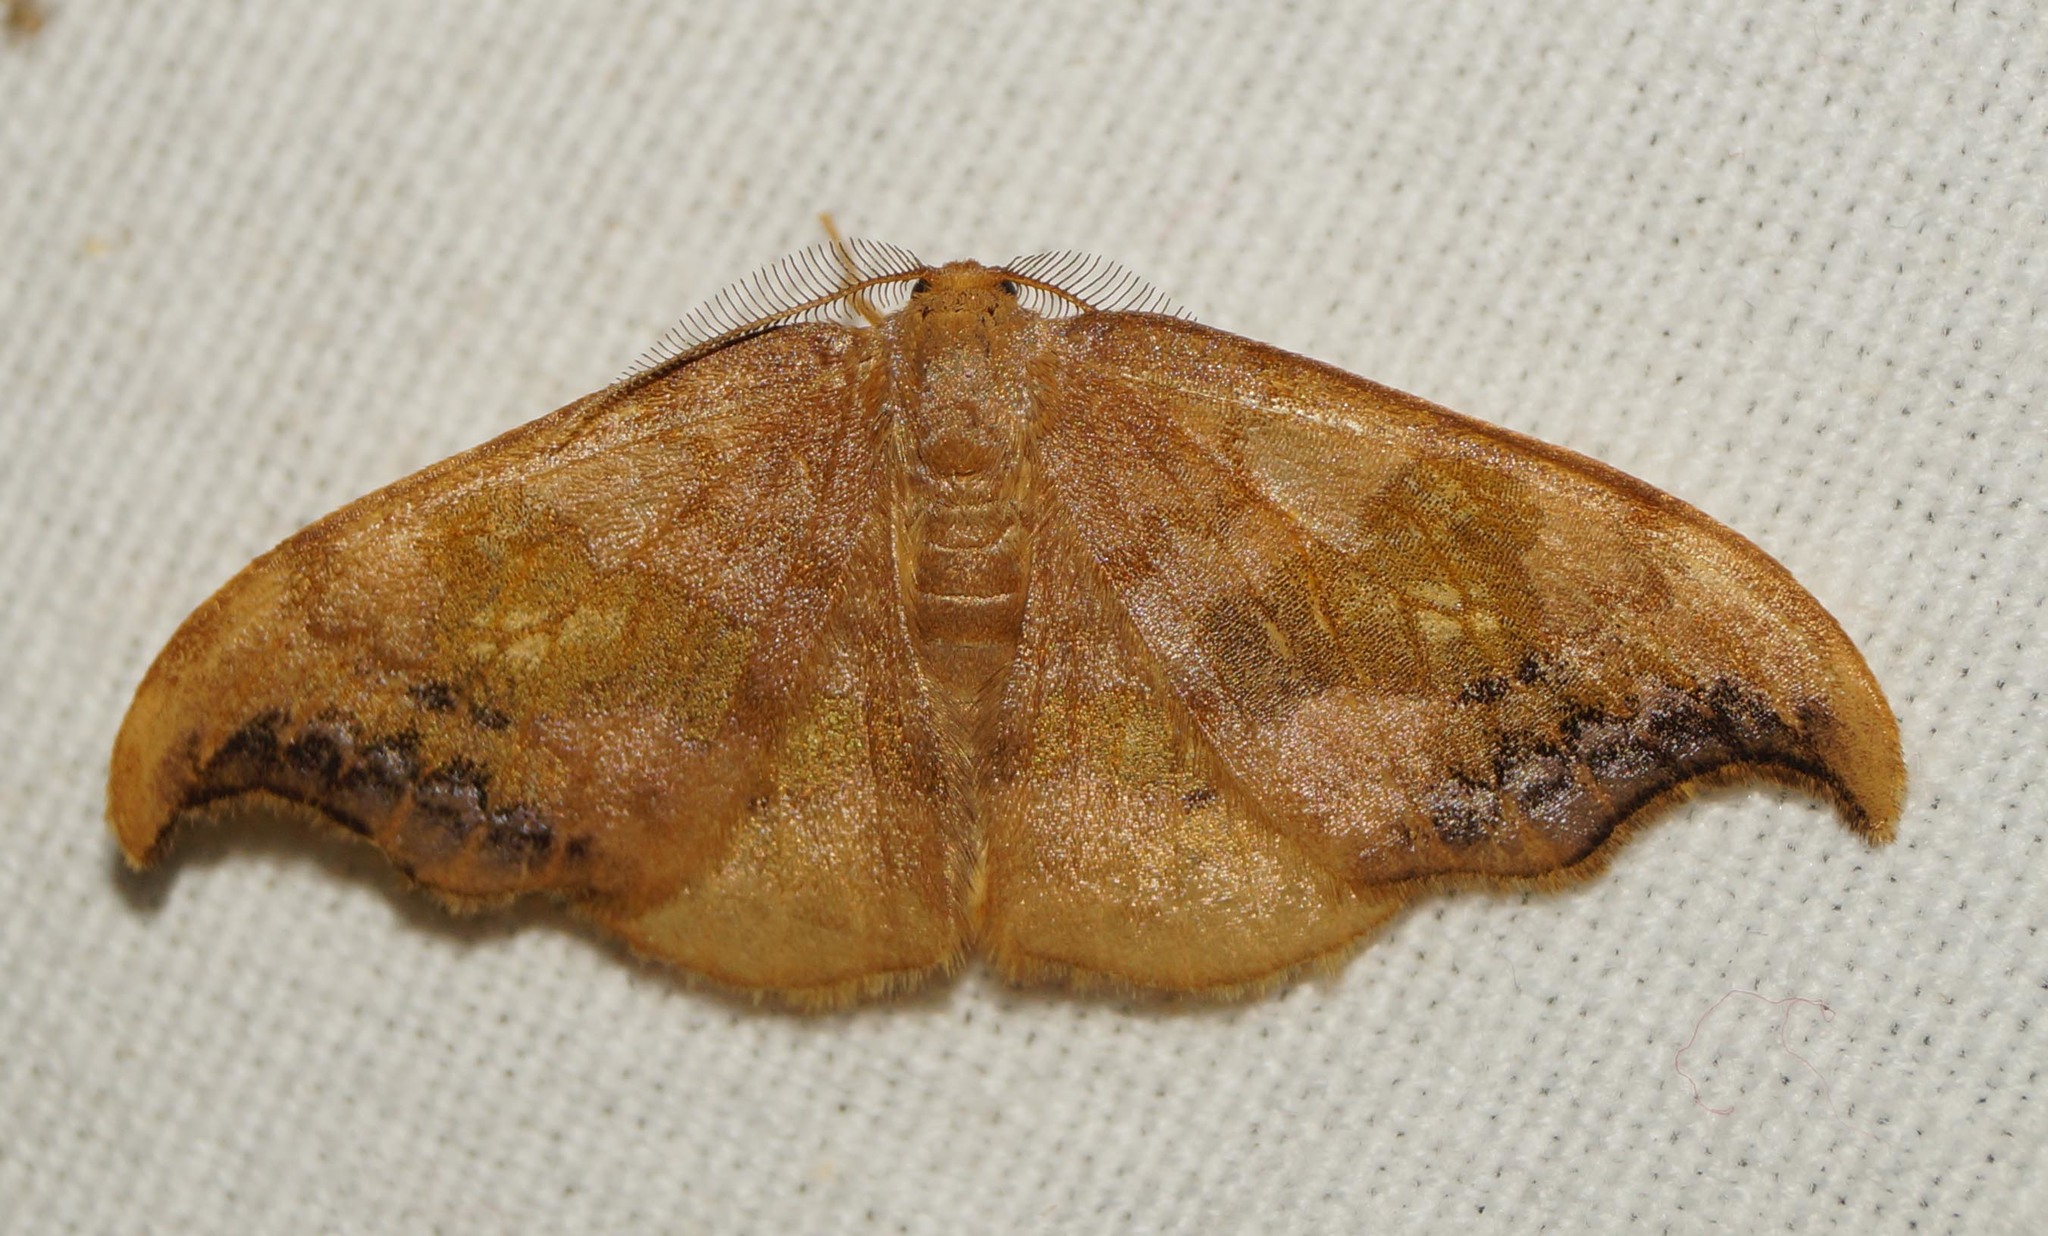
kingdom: Animalia
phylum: Arthropoda
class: Insecta
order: Lepidoptera
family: Drepanidae
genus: Sabra
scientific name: Sabra harpagula
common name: Scarce hook-tip
